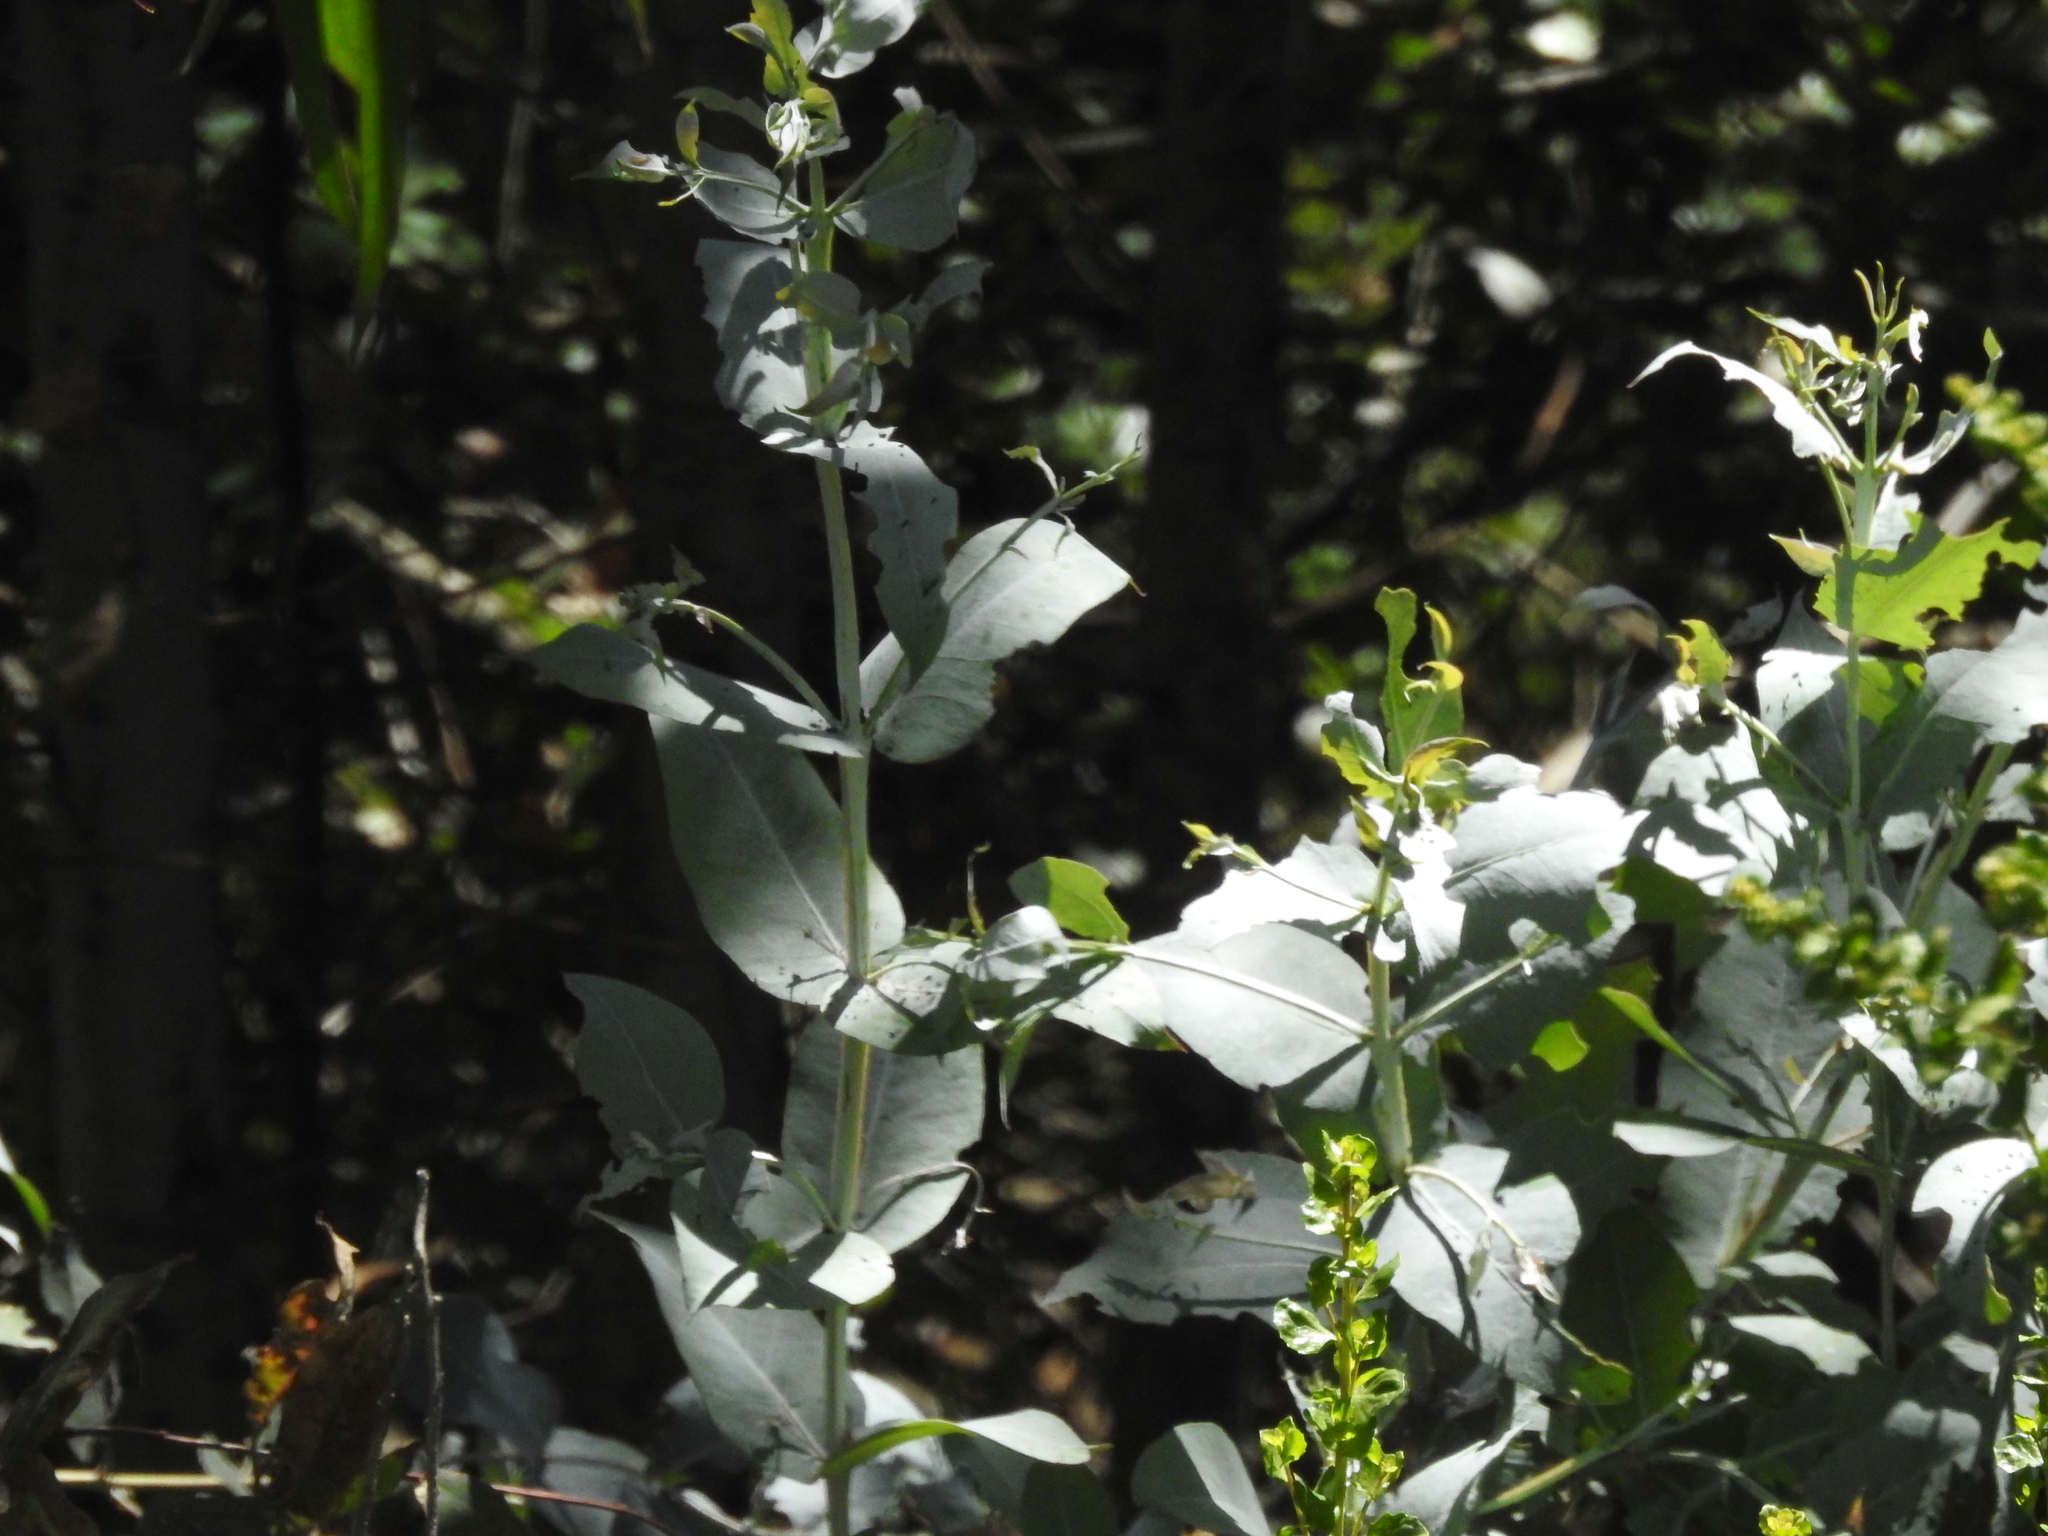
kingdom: Plantae
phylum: Tracheophyta
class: Magnoliopsida
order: Myrtales
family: Myrtaceae
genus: Eucalyptus
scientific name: Eucalyptus globulus
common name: Southern blue-gum
